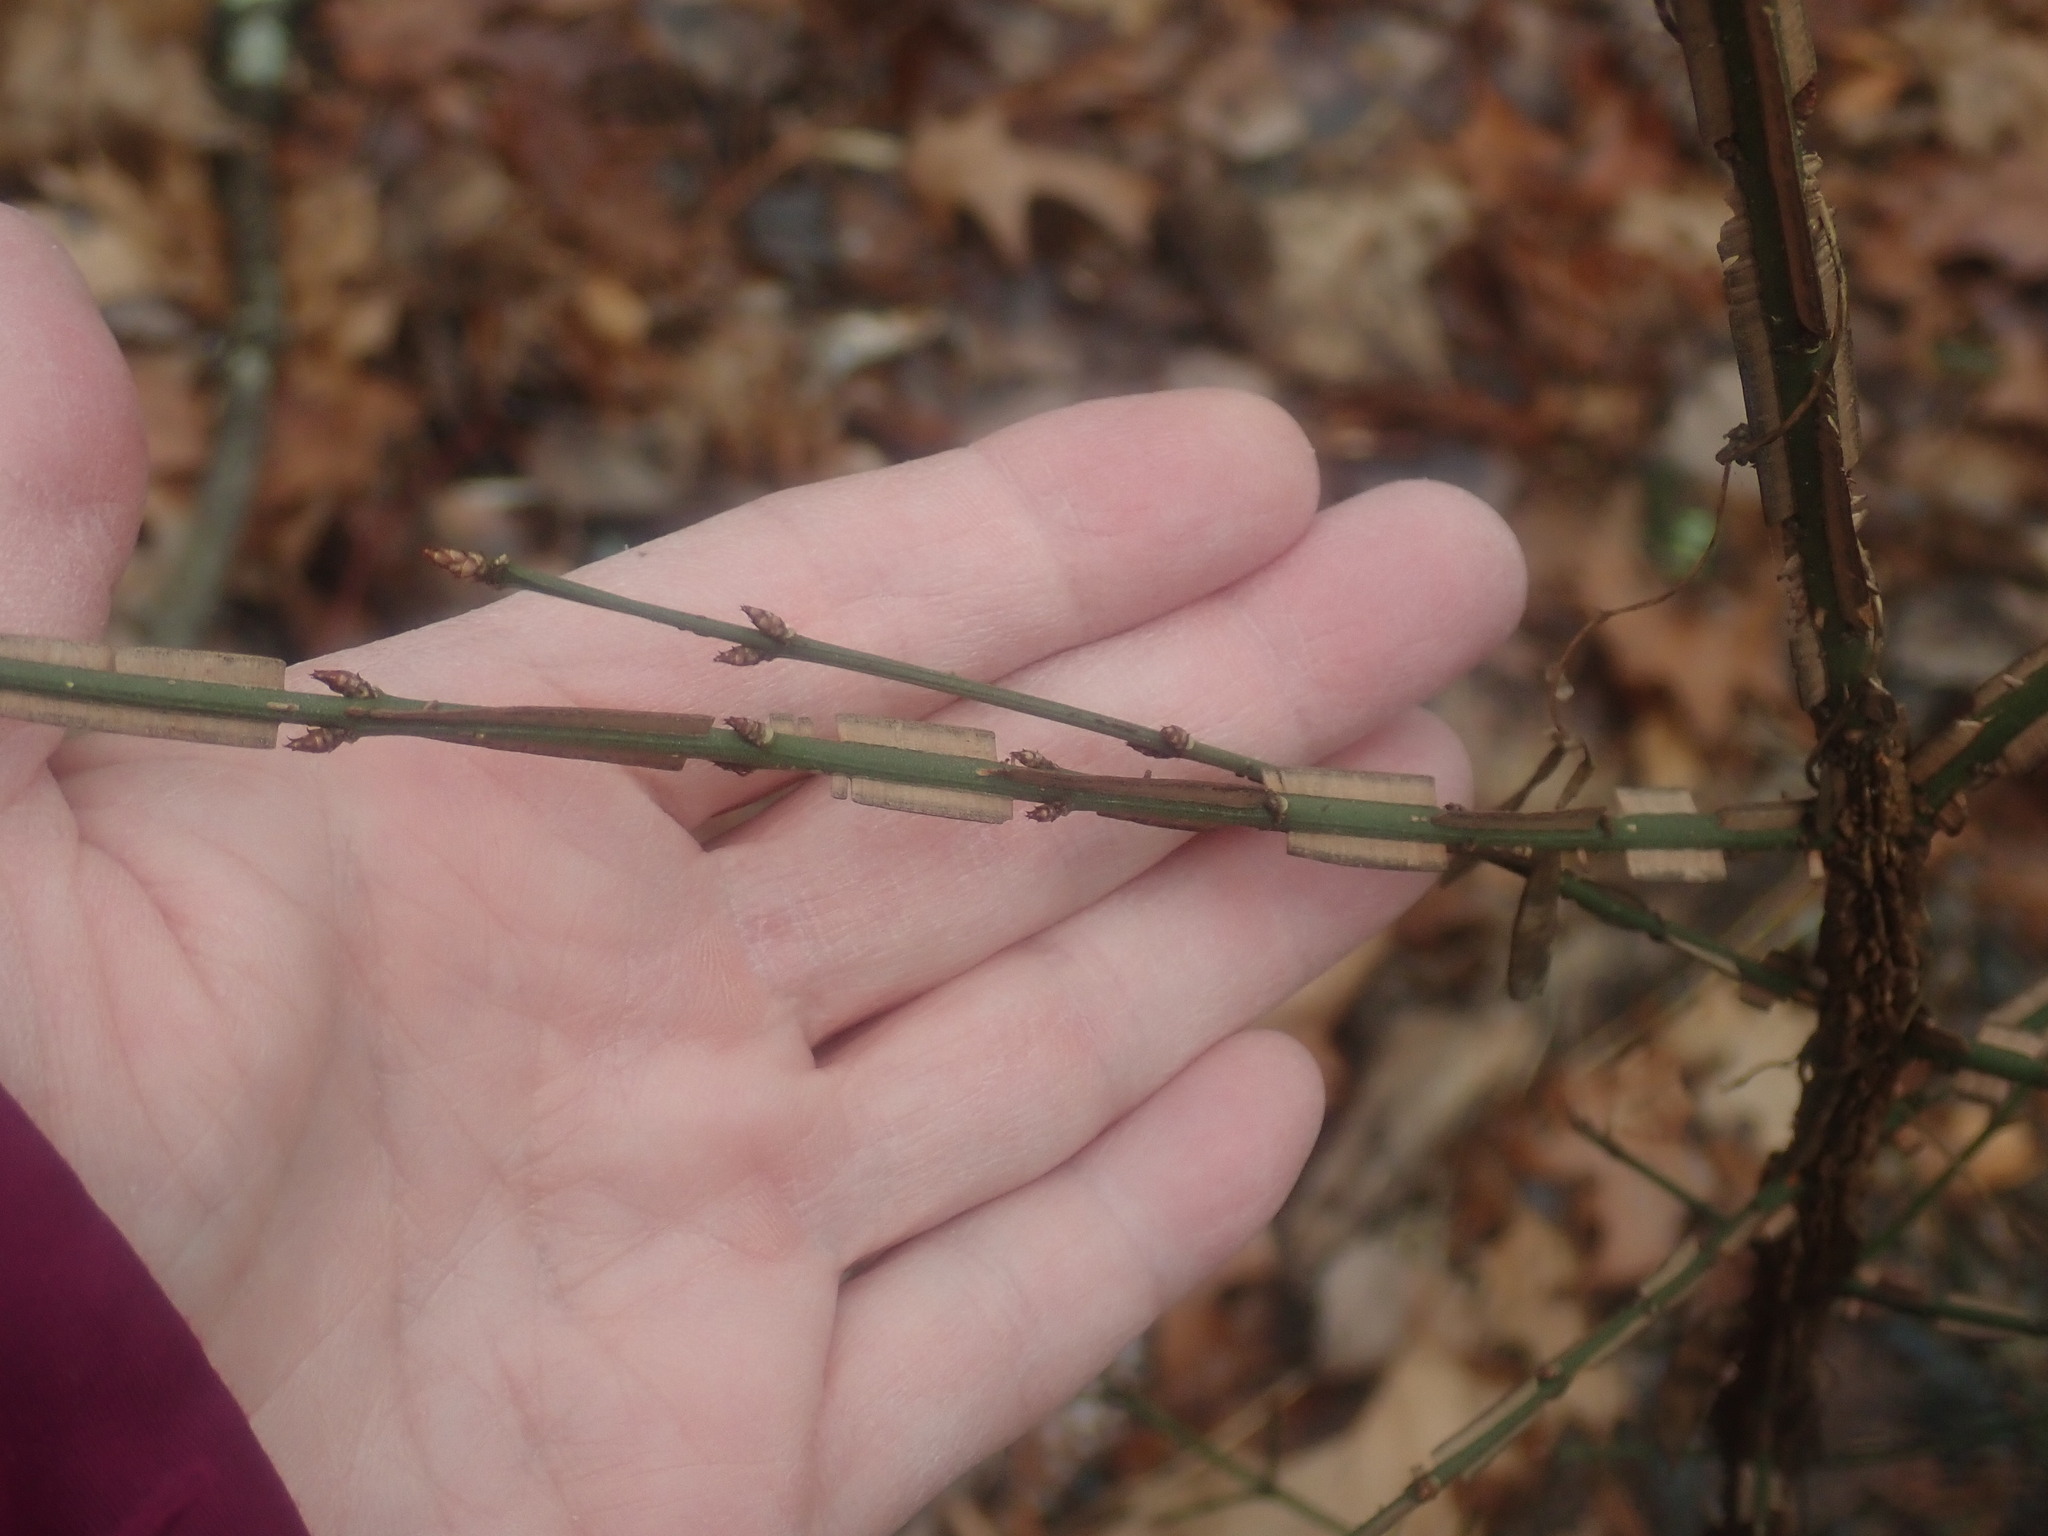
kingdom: Plantae
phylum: Tracheophyta
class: Magnoliopsida
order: Celastrales
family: Celastraceae
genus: Euonymus
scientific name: Euonymus alatus
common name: Winged euonymus
